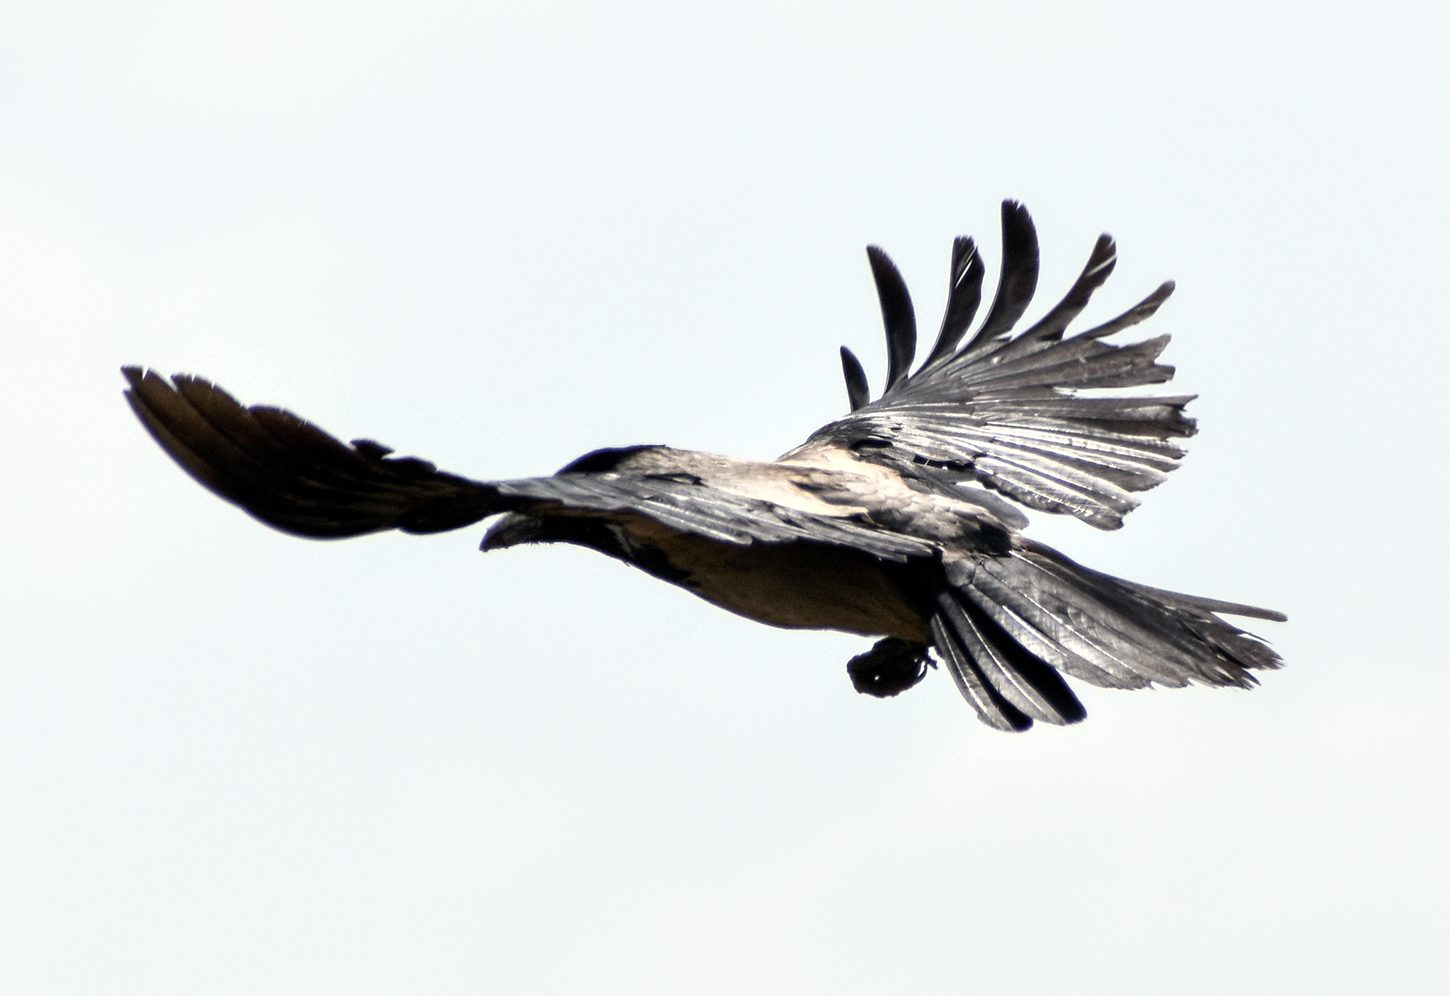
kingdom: Animalia
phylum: Chordata
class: Aves
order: Passeriformes
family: Corvidae
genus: Corvus
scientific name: Corvus cornix
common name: Hooded crow
